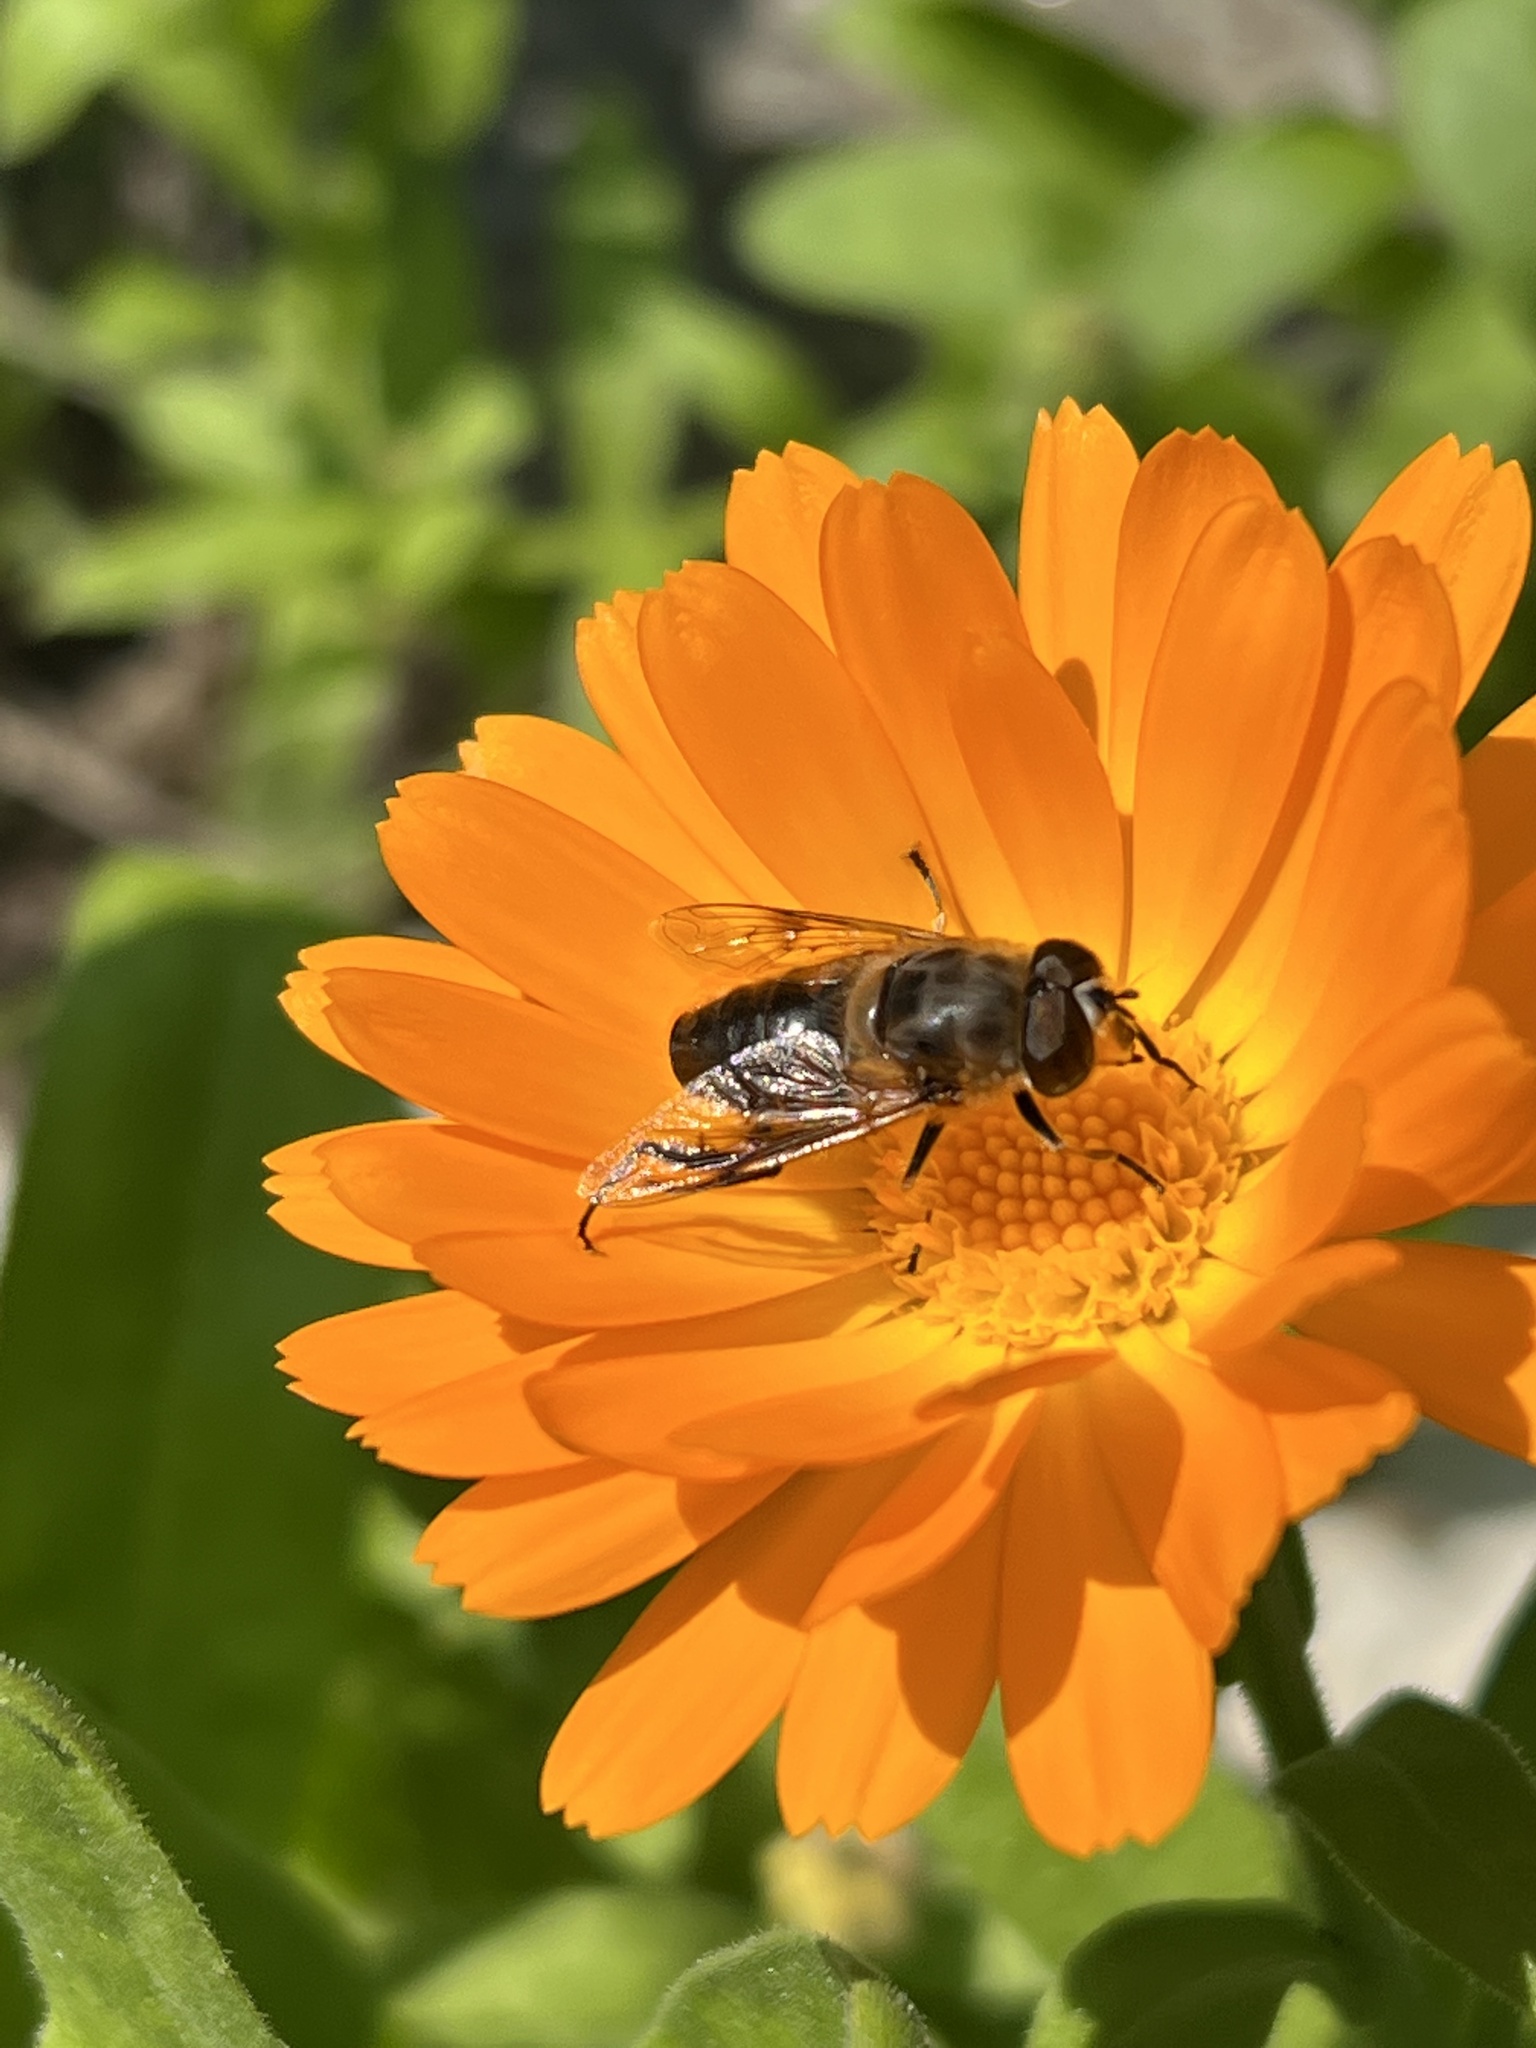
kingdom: Animalia
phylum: Arthropoda
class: Insecta
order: Diptera
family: Syrphidae
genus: Eristalis
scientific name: Eristalis tenax
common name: Drone fly
